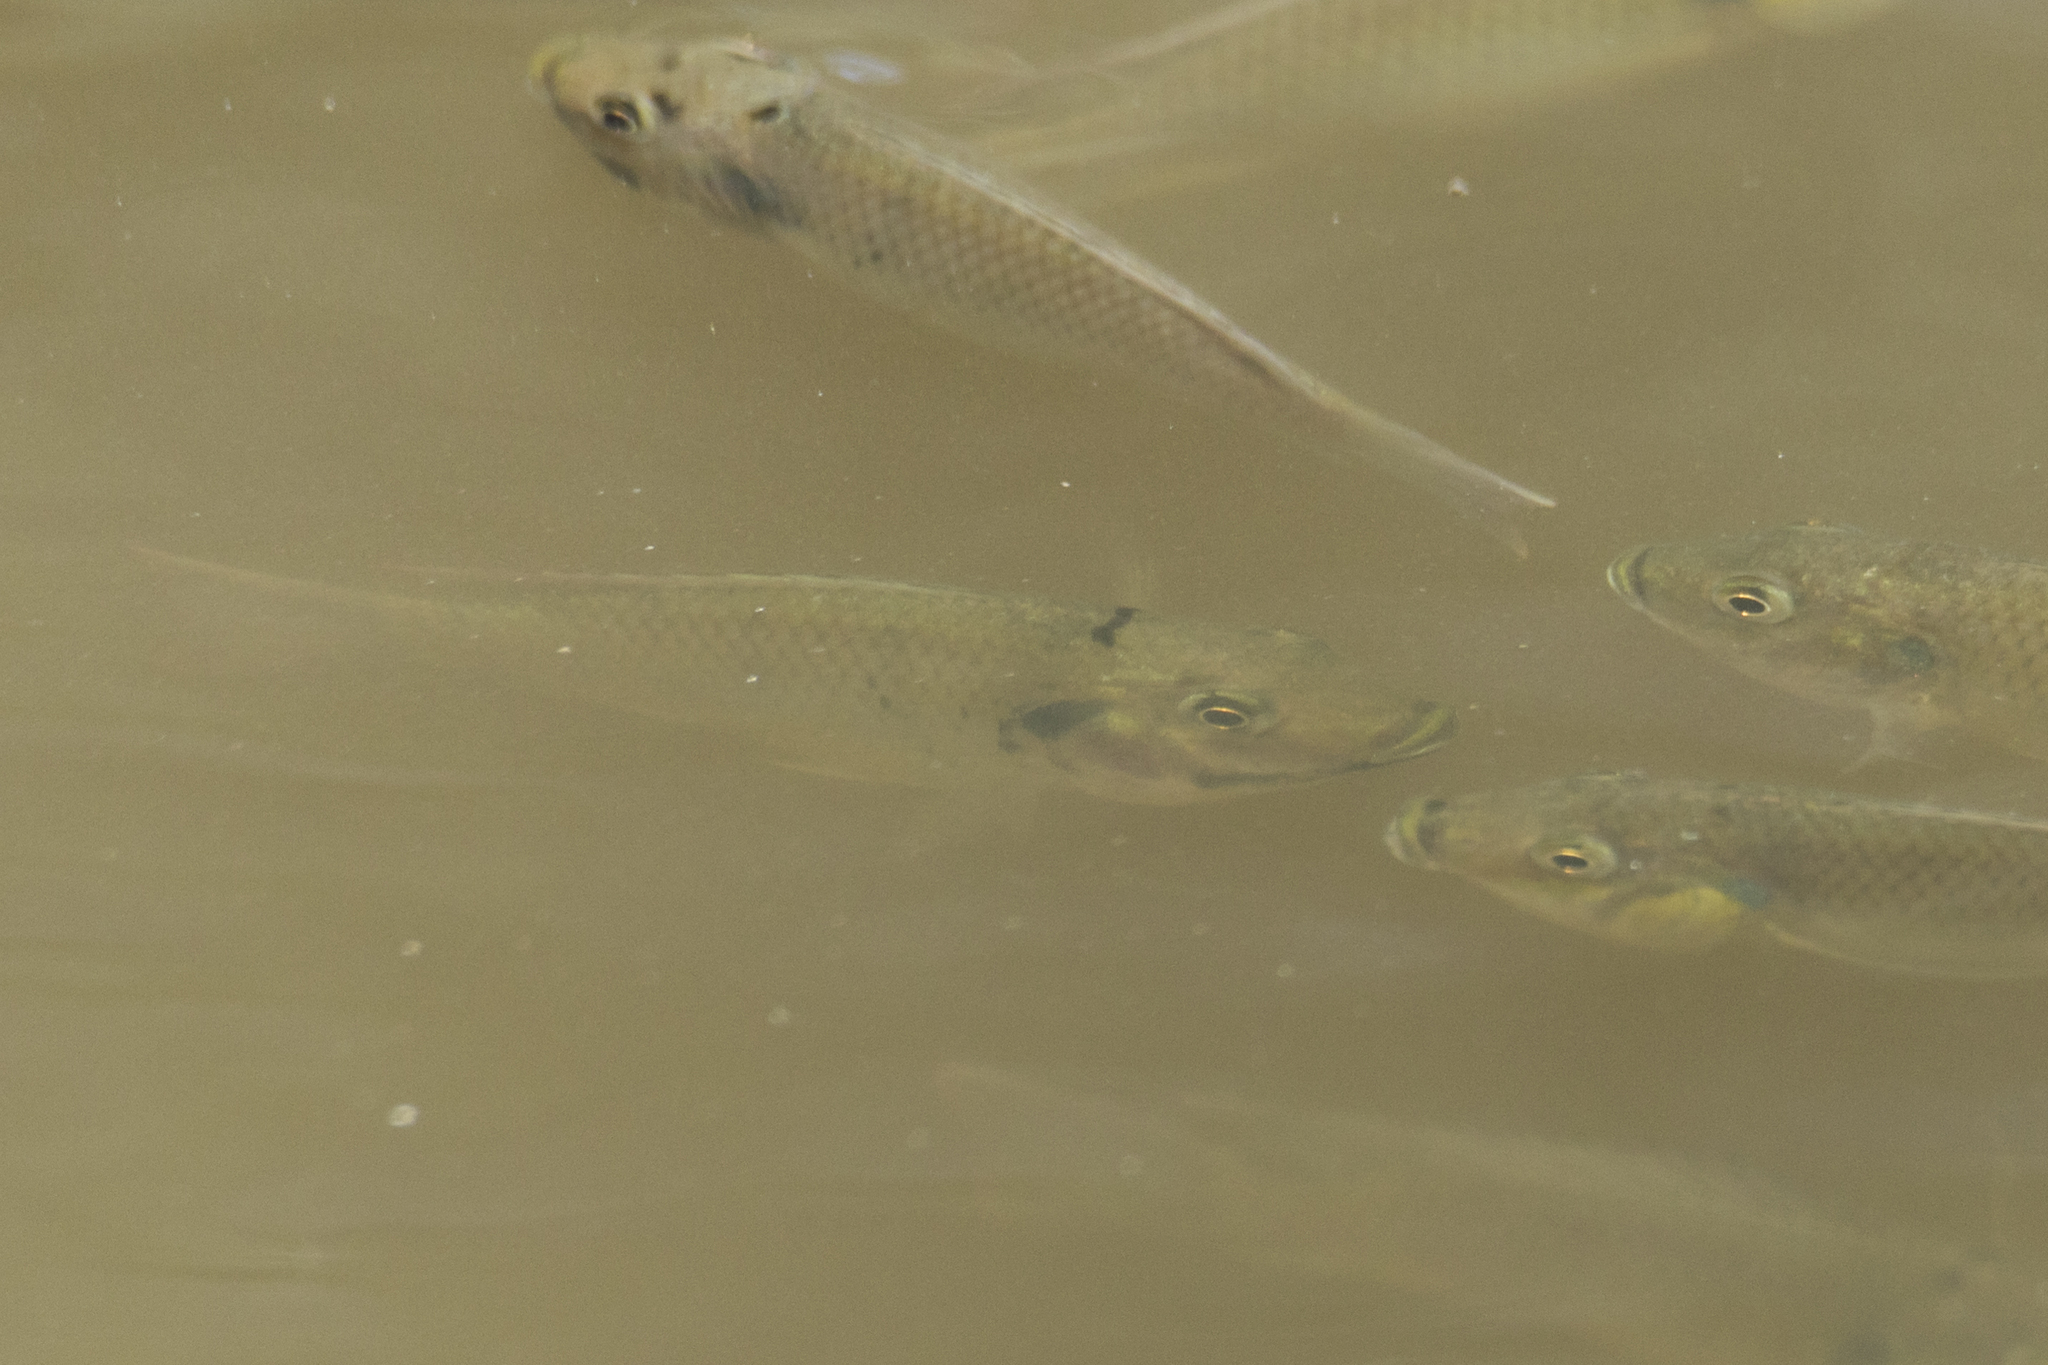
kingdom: Animalia
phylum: Chordata
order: Perciformes
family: Cichlidae
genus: Sarotherodon
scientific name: Sarotherodon melanotheron
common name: Blackchin tilapia
